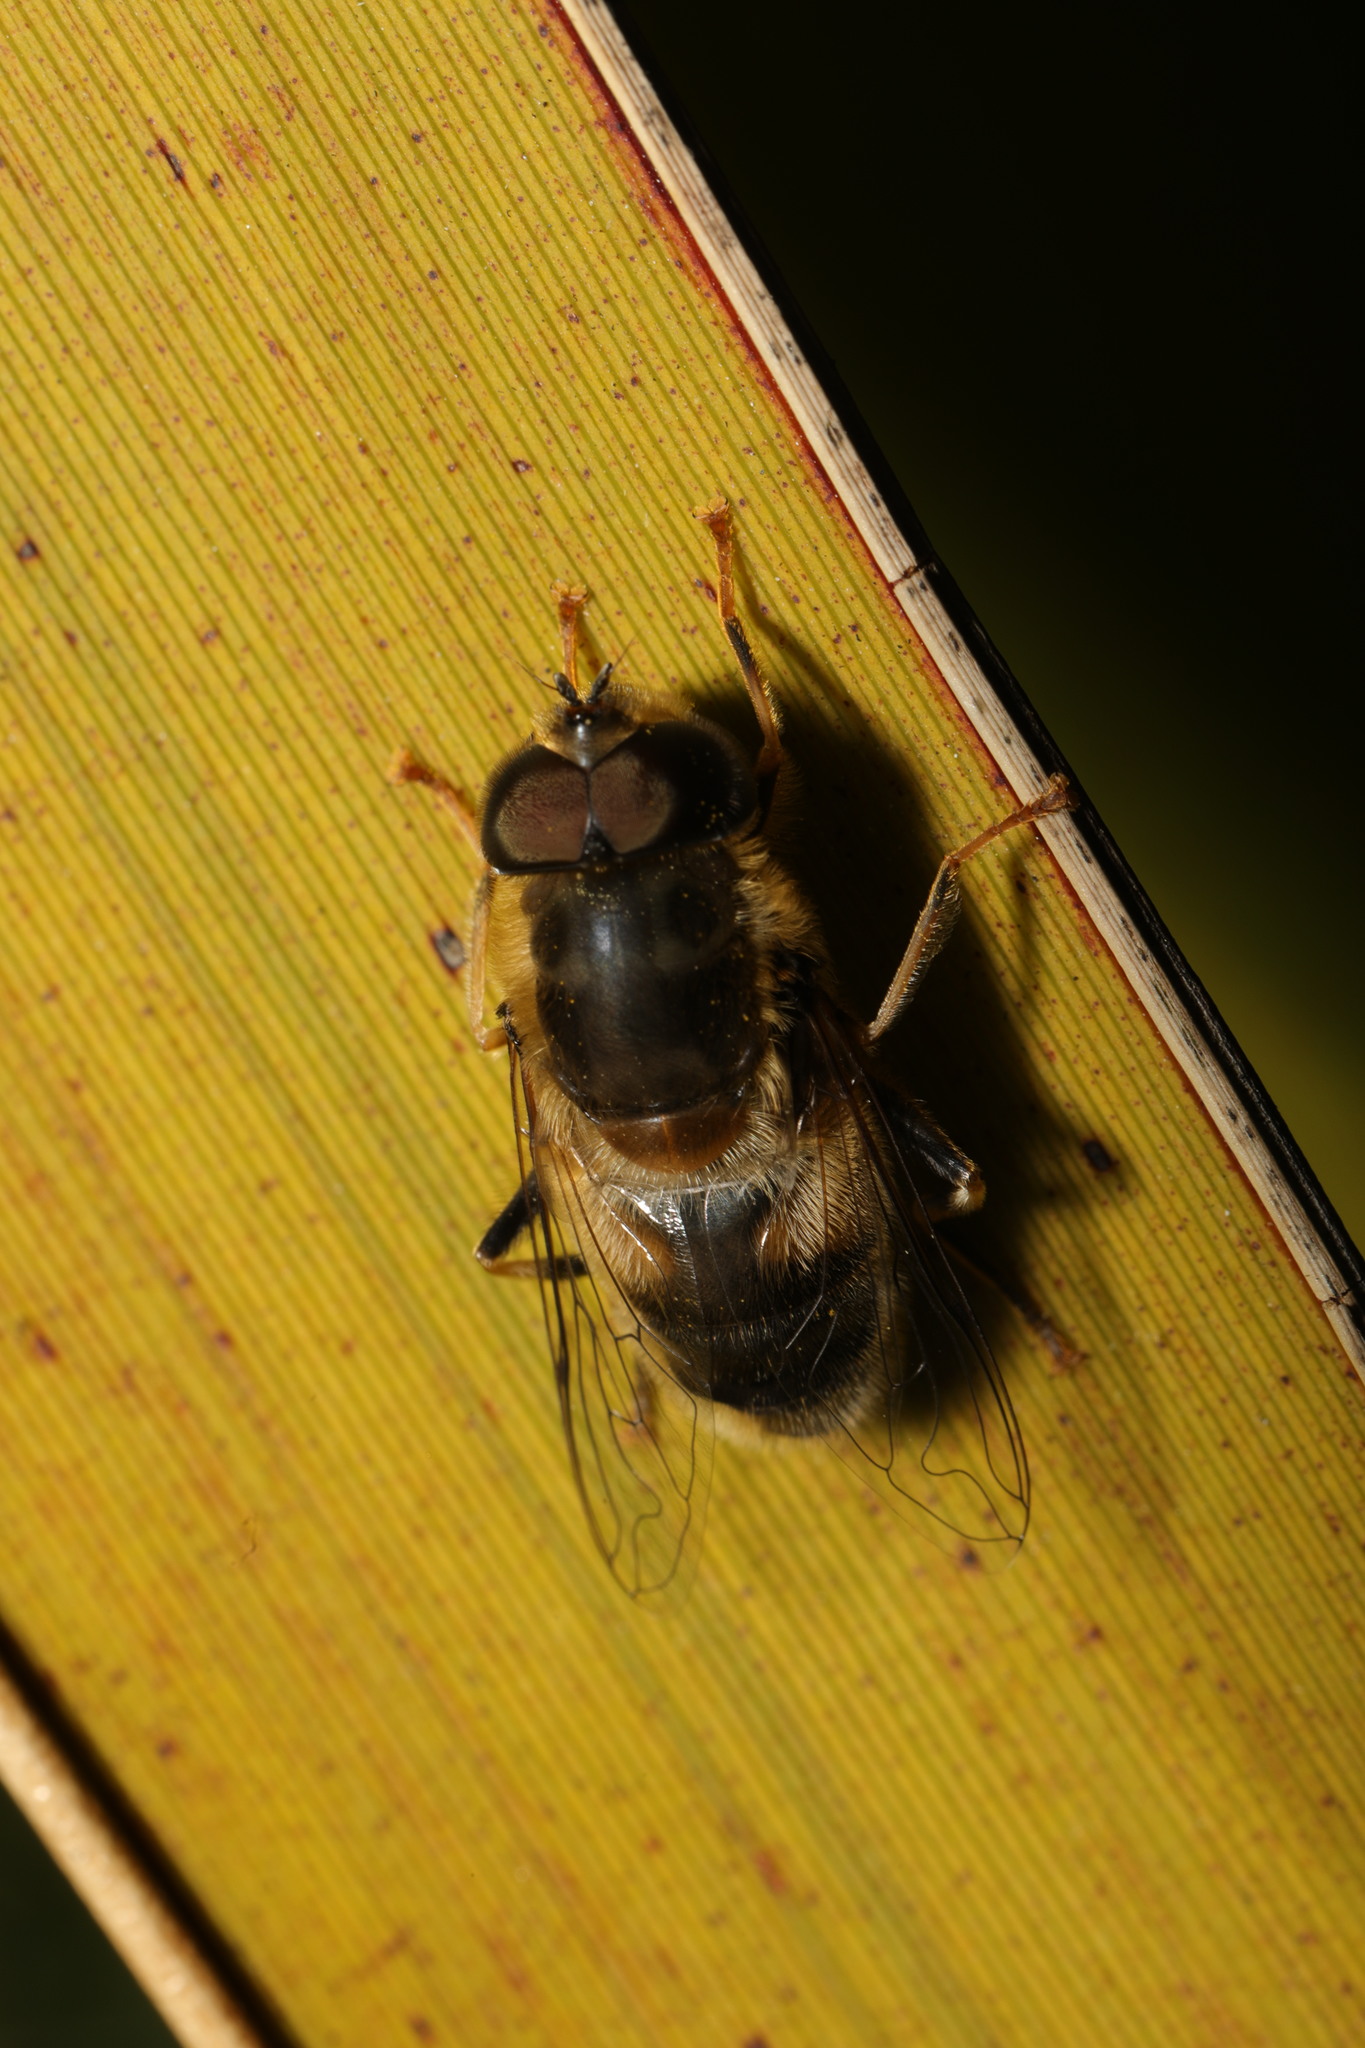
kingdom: Animalia
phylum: Arthropoda
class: Insecta
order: Diptera
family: Syrphidae
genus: Eristalis
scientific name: Eristalis pertinax
